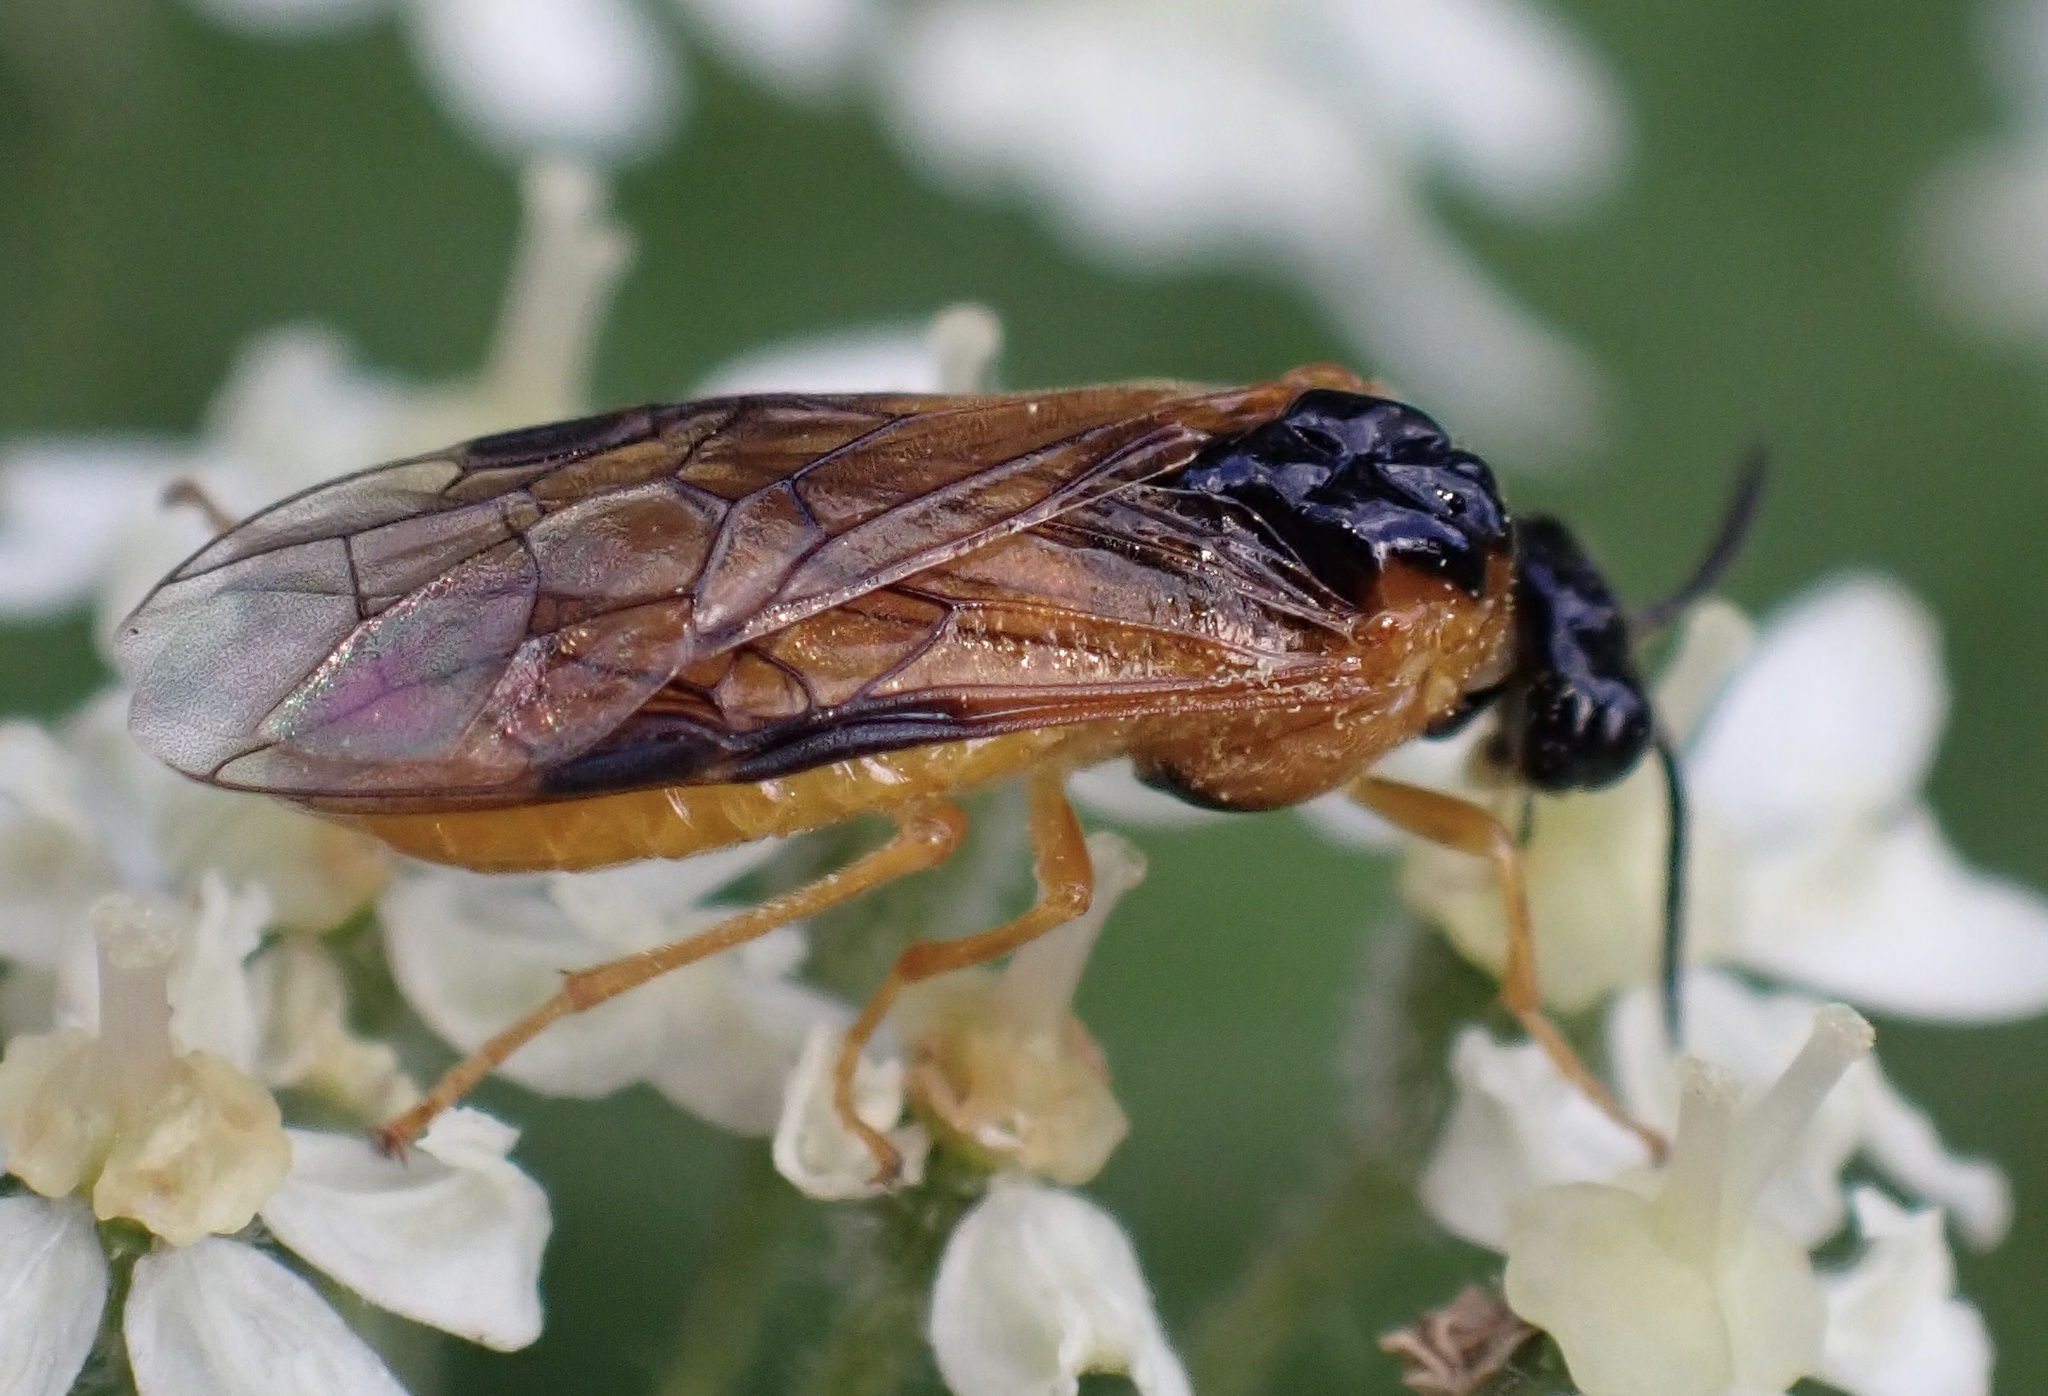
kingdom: Animalia
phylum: Arthropoda
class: Insecta
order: Hymenoptera
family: Tenthredinidae
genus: Selandria
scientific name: Selandria serva
